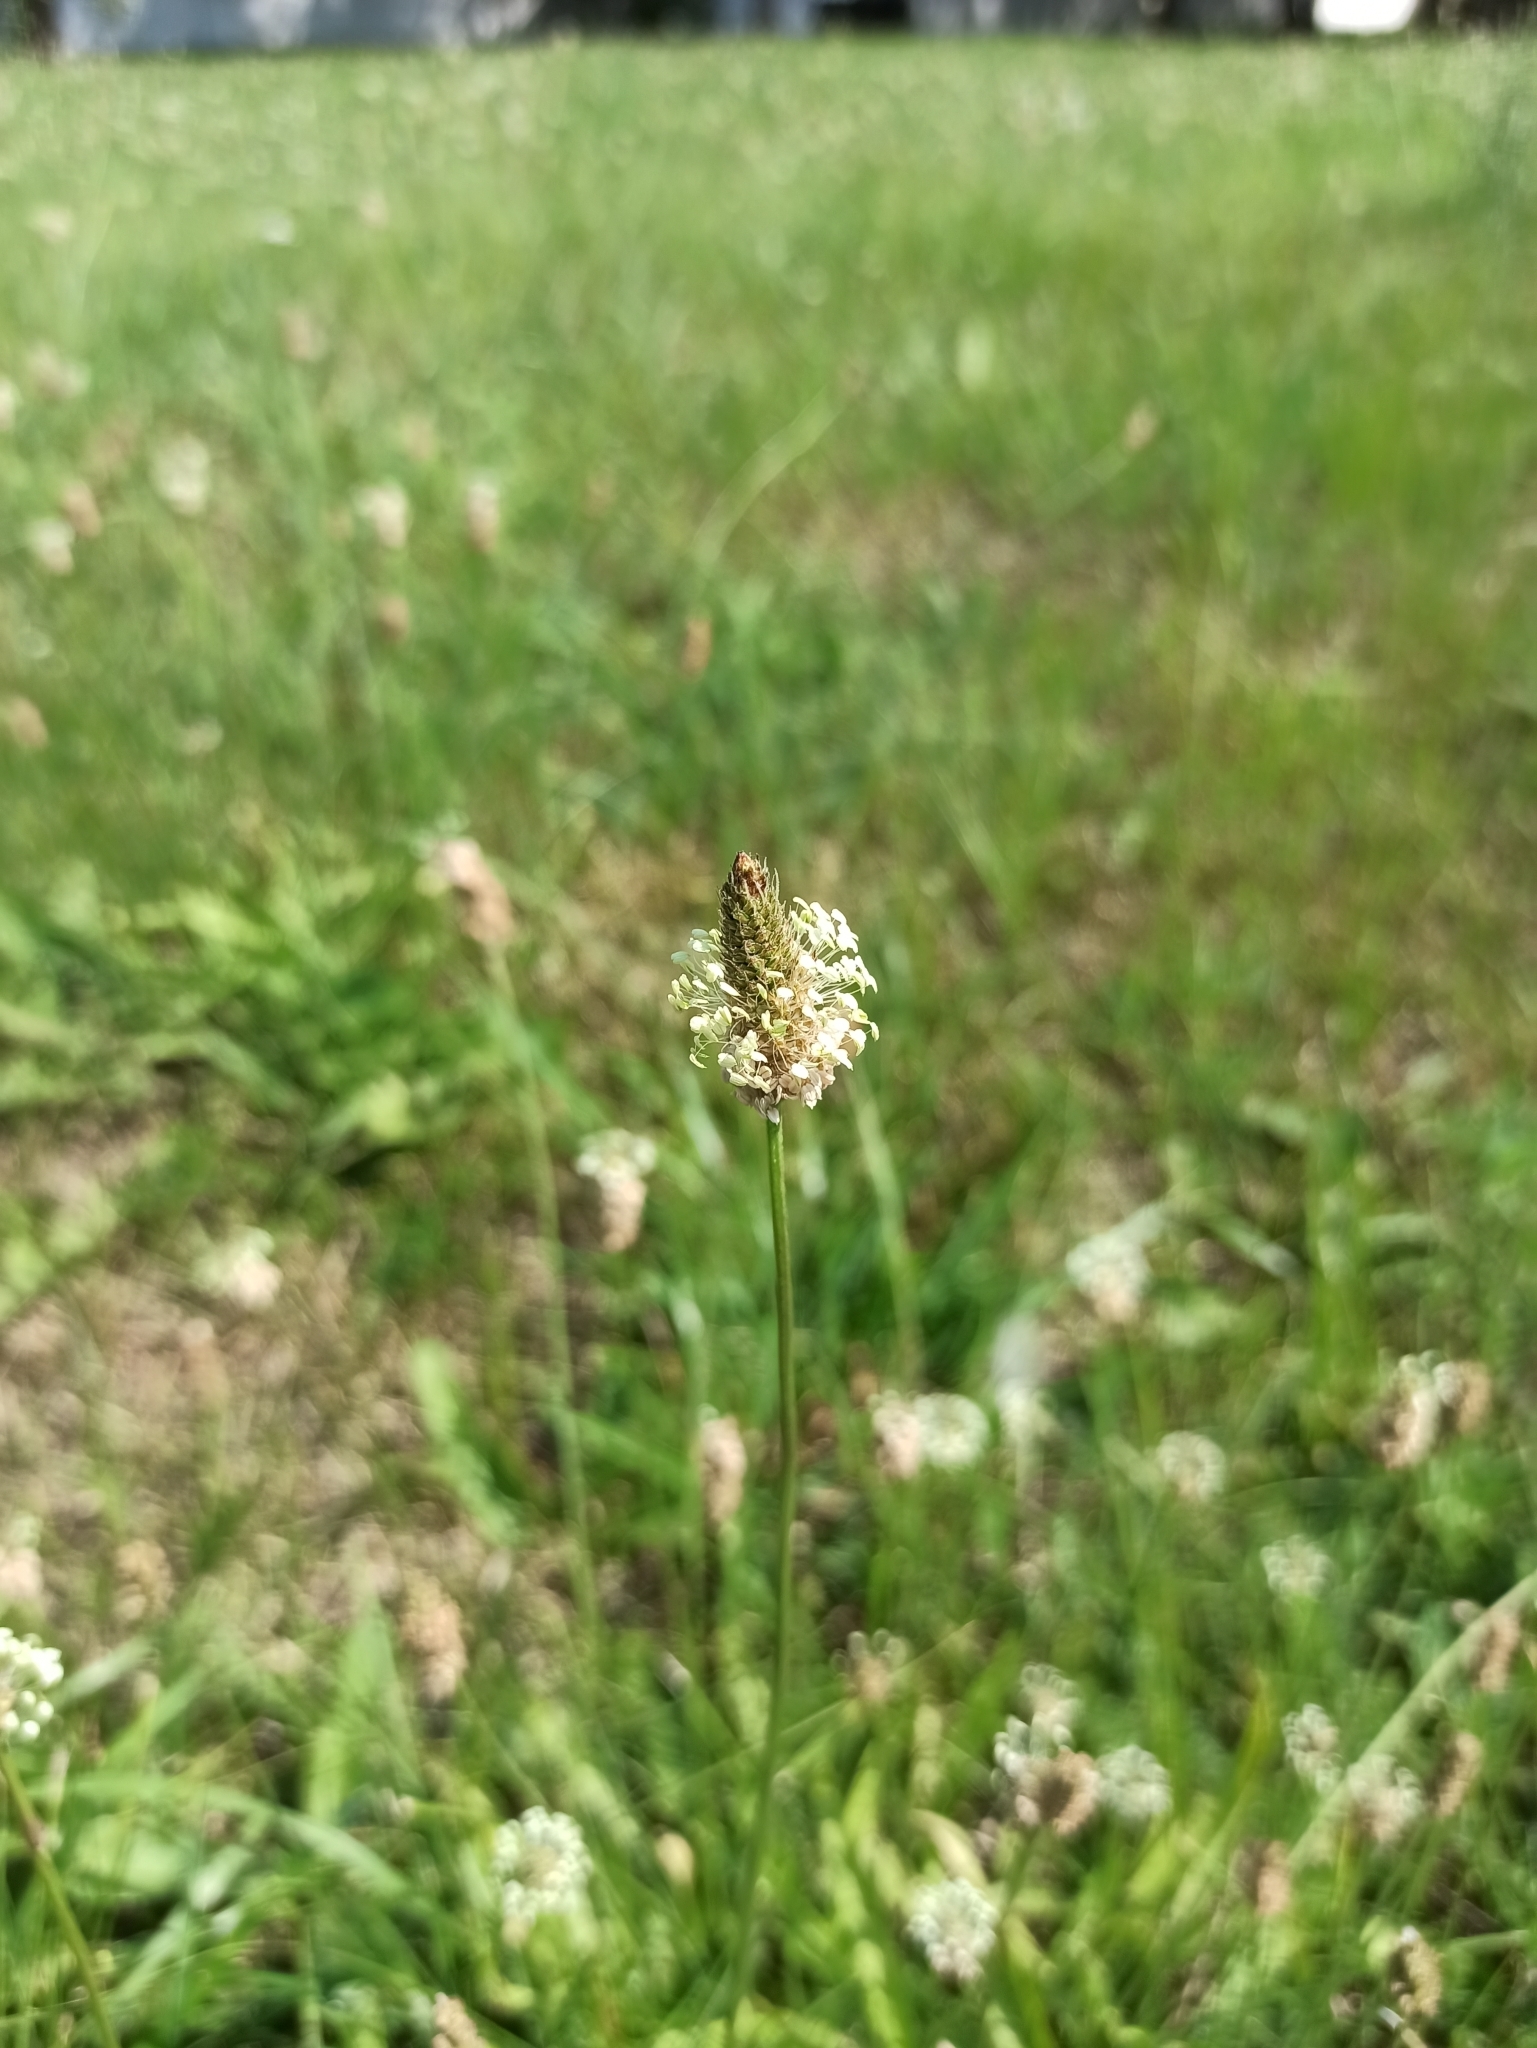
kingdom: Plantae
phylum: Tracheophyta
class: Magnoliopsida
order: Lamiales
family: Plantaginaceae
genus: Plantago
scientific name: Plantago lanceolata
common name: Ribwort plantain
